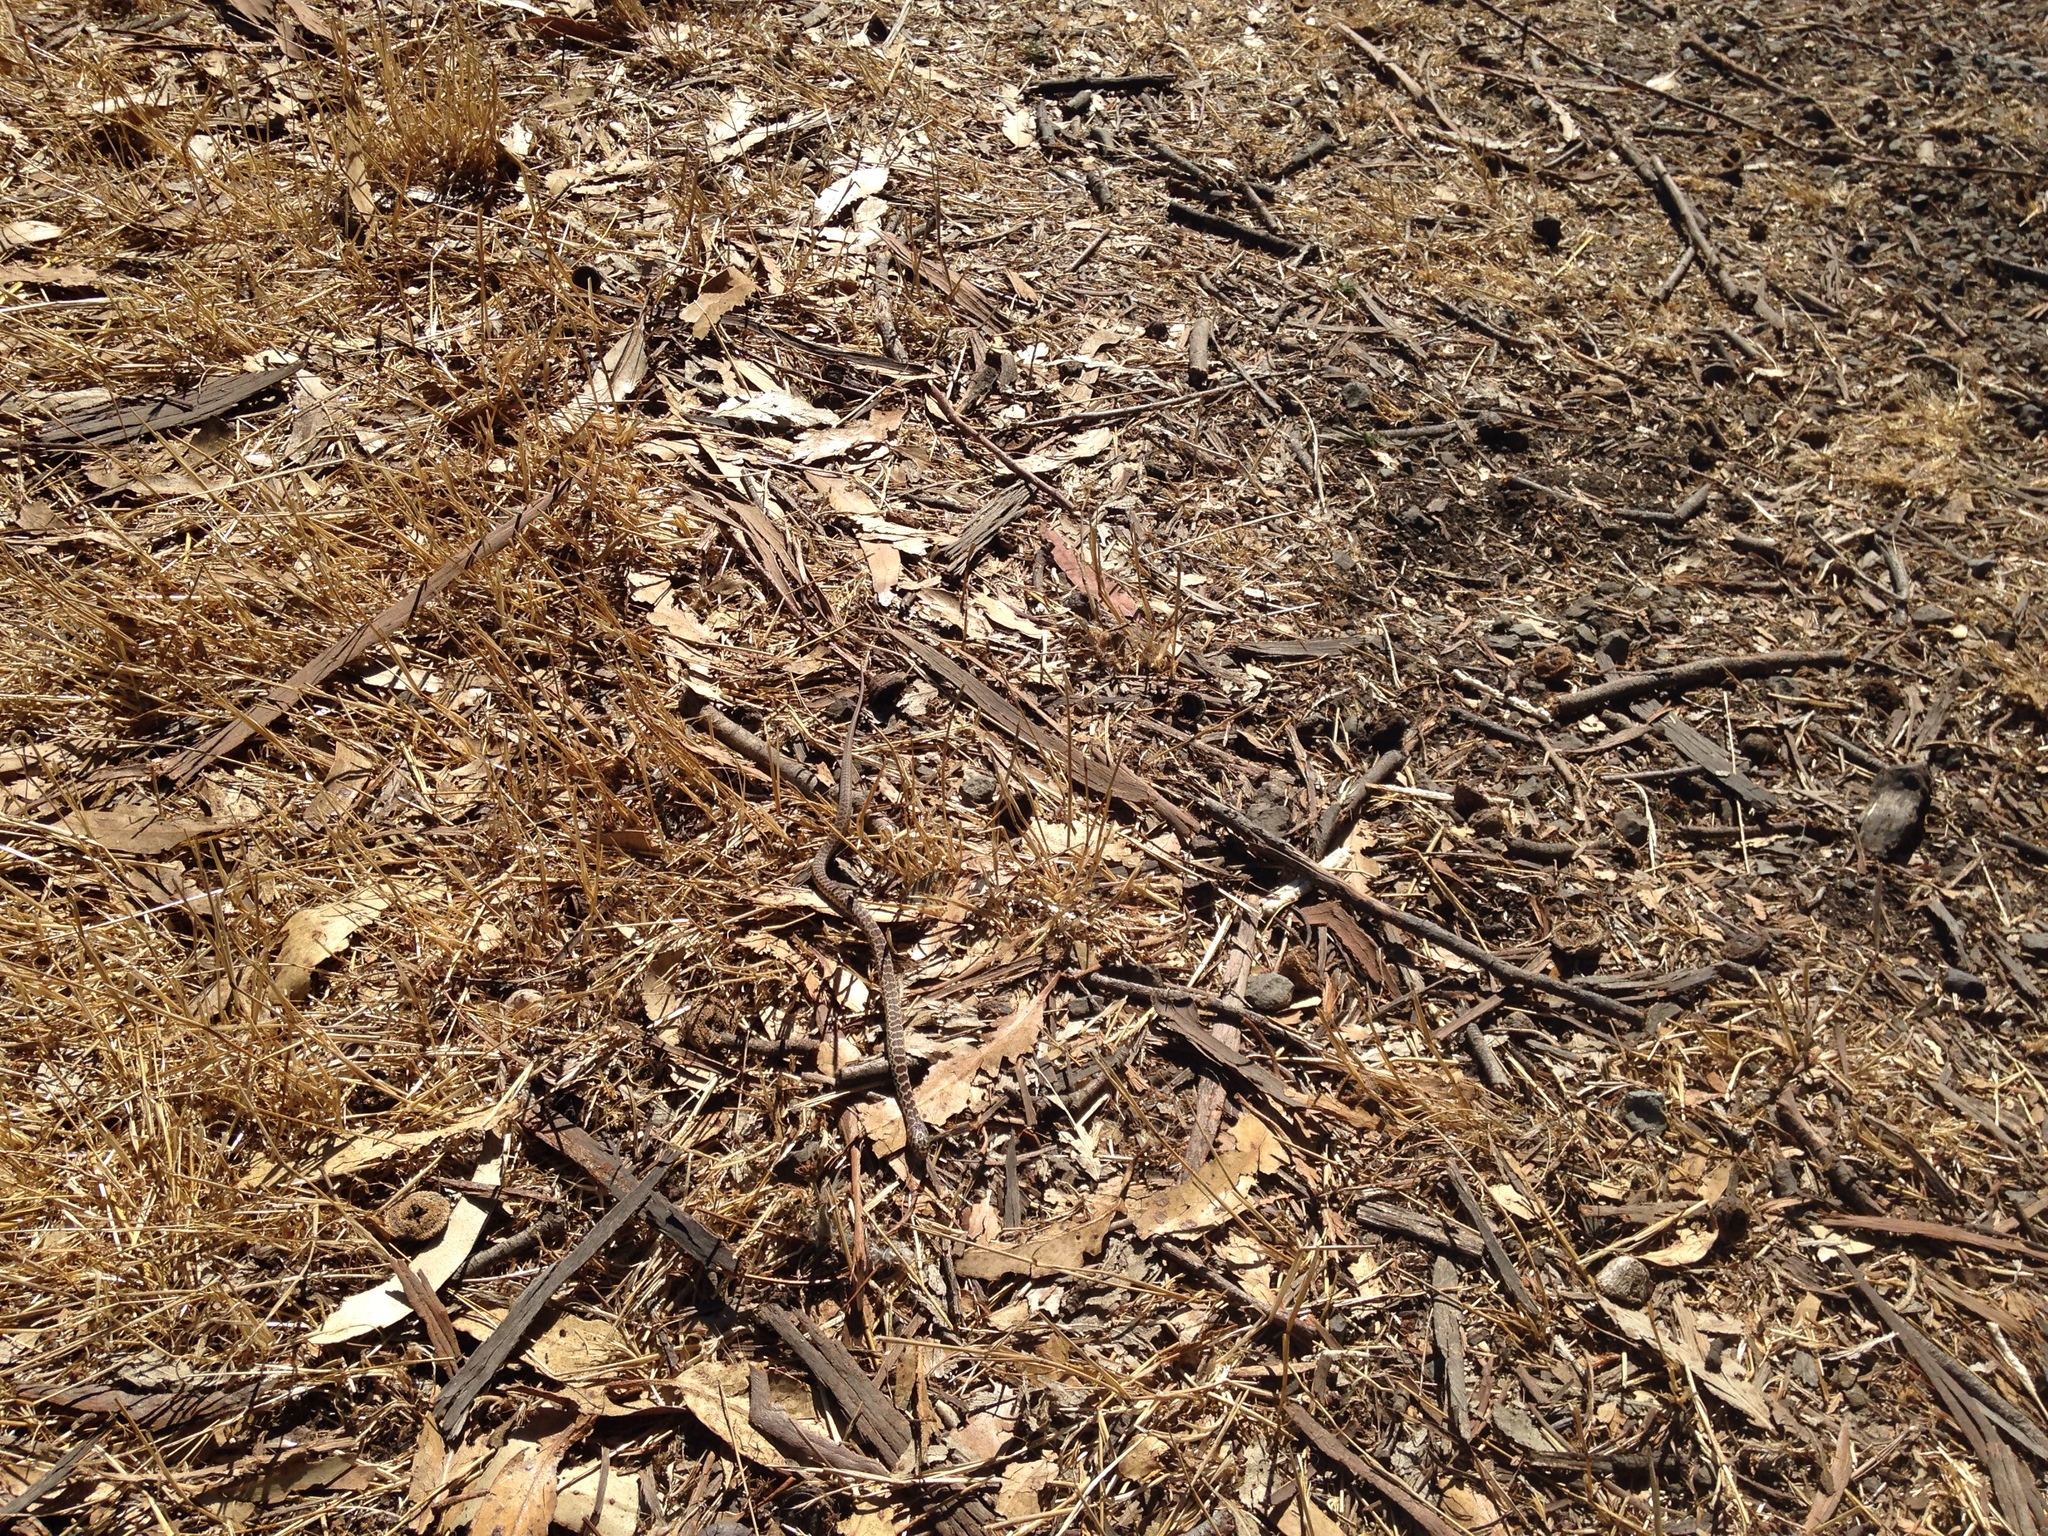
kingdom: Animalia
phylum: Chordata
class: Squamata
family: Colubridae
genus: Coluber
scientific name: Coluber constrictor
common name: Eastern racer
